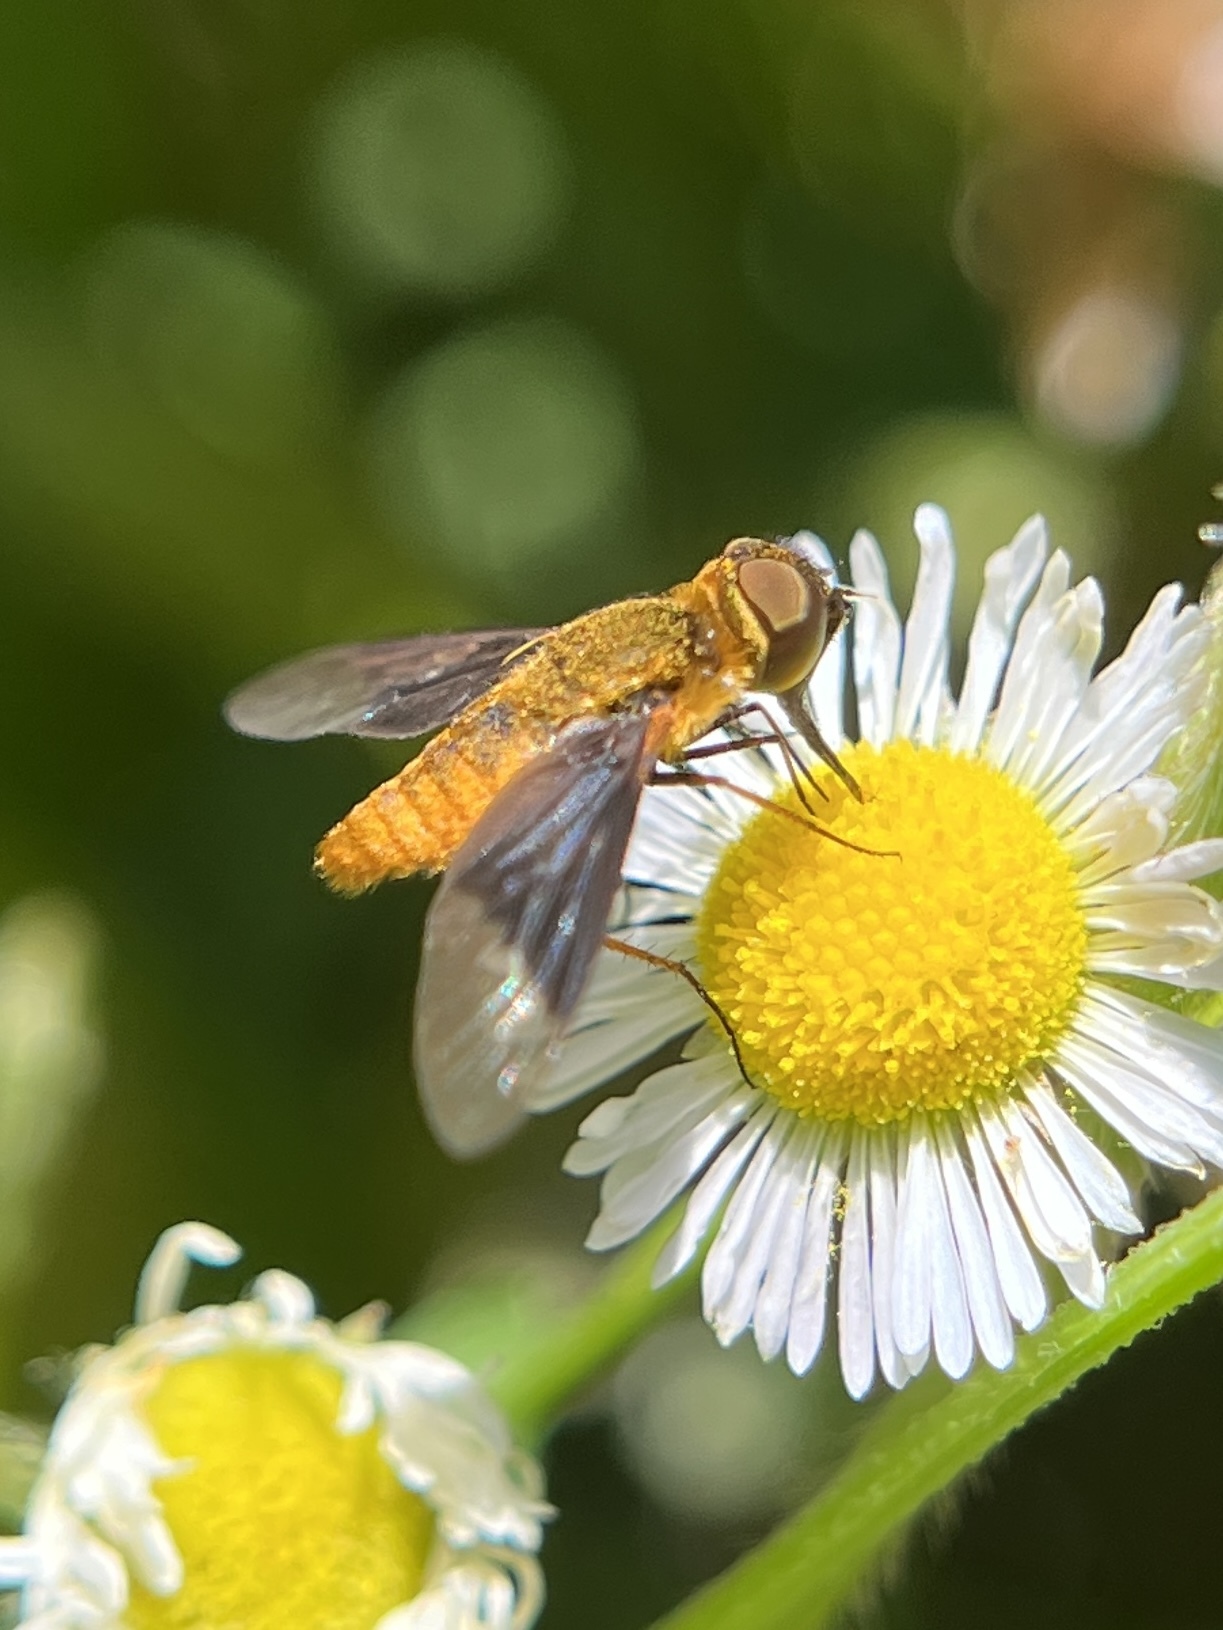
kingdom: Animalia
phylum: Arthropoda
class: Insecta
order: Diptera
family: Bombyliidae
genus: Chrysanthrax
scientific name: Chrysanthrax cypris
